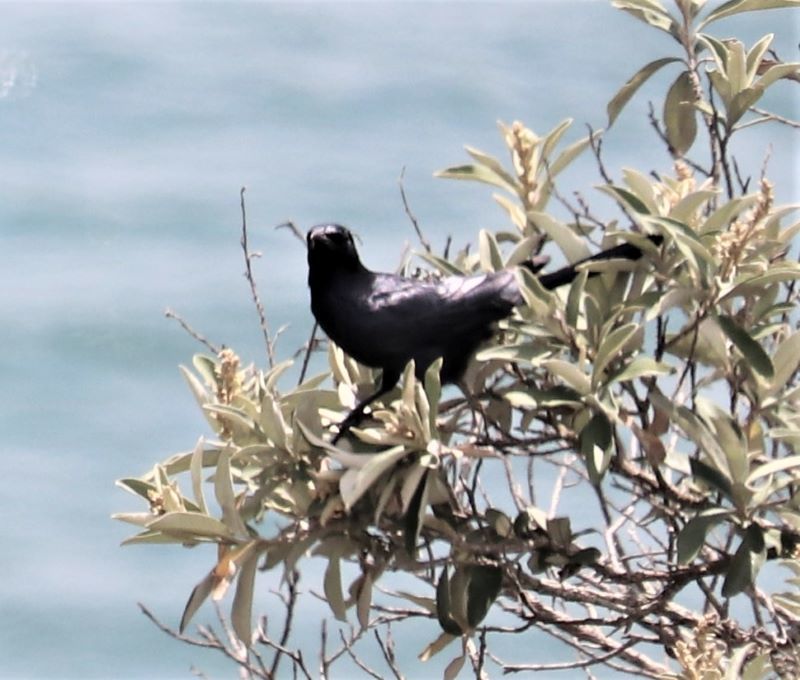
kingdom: Animalia
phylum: Chordata
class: Aves
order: Passeriformes
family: Sturnidae
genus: Onychognathus
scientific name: Onychognathus morio
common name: Red-winged starling
